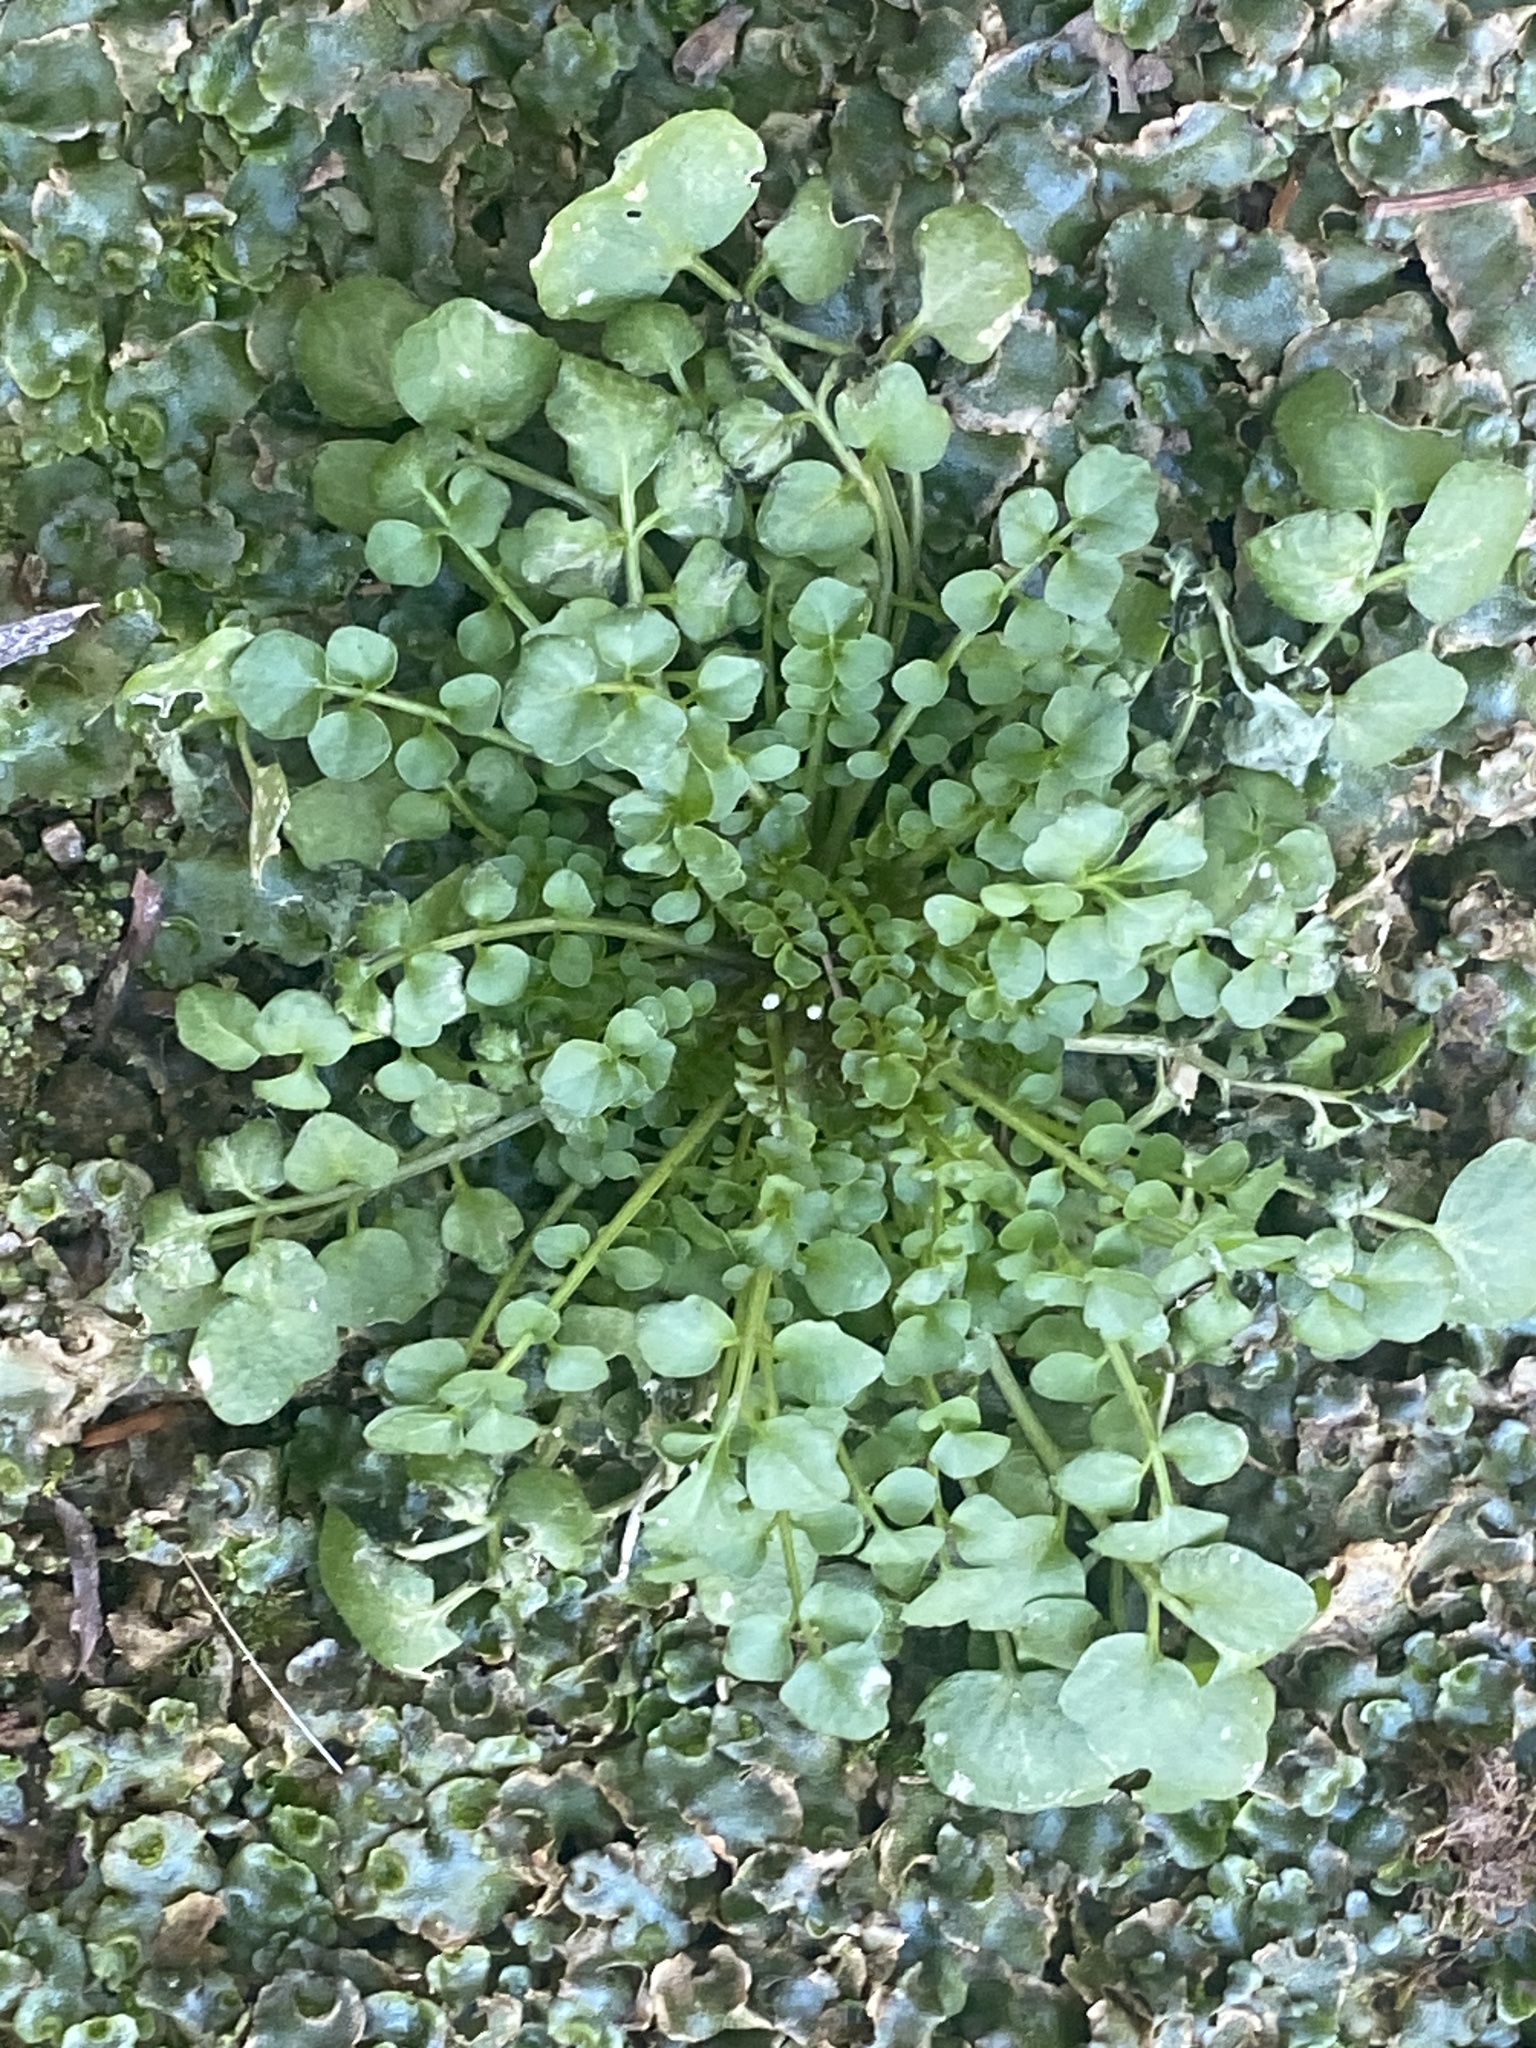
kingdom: Plantae
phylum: Tracheophyta
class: Magnoliopsida
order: Brassicales
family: Brassicaceae
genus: Cardamine
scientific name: Cardamine hirsuta
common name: Hairy bittercress
